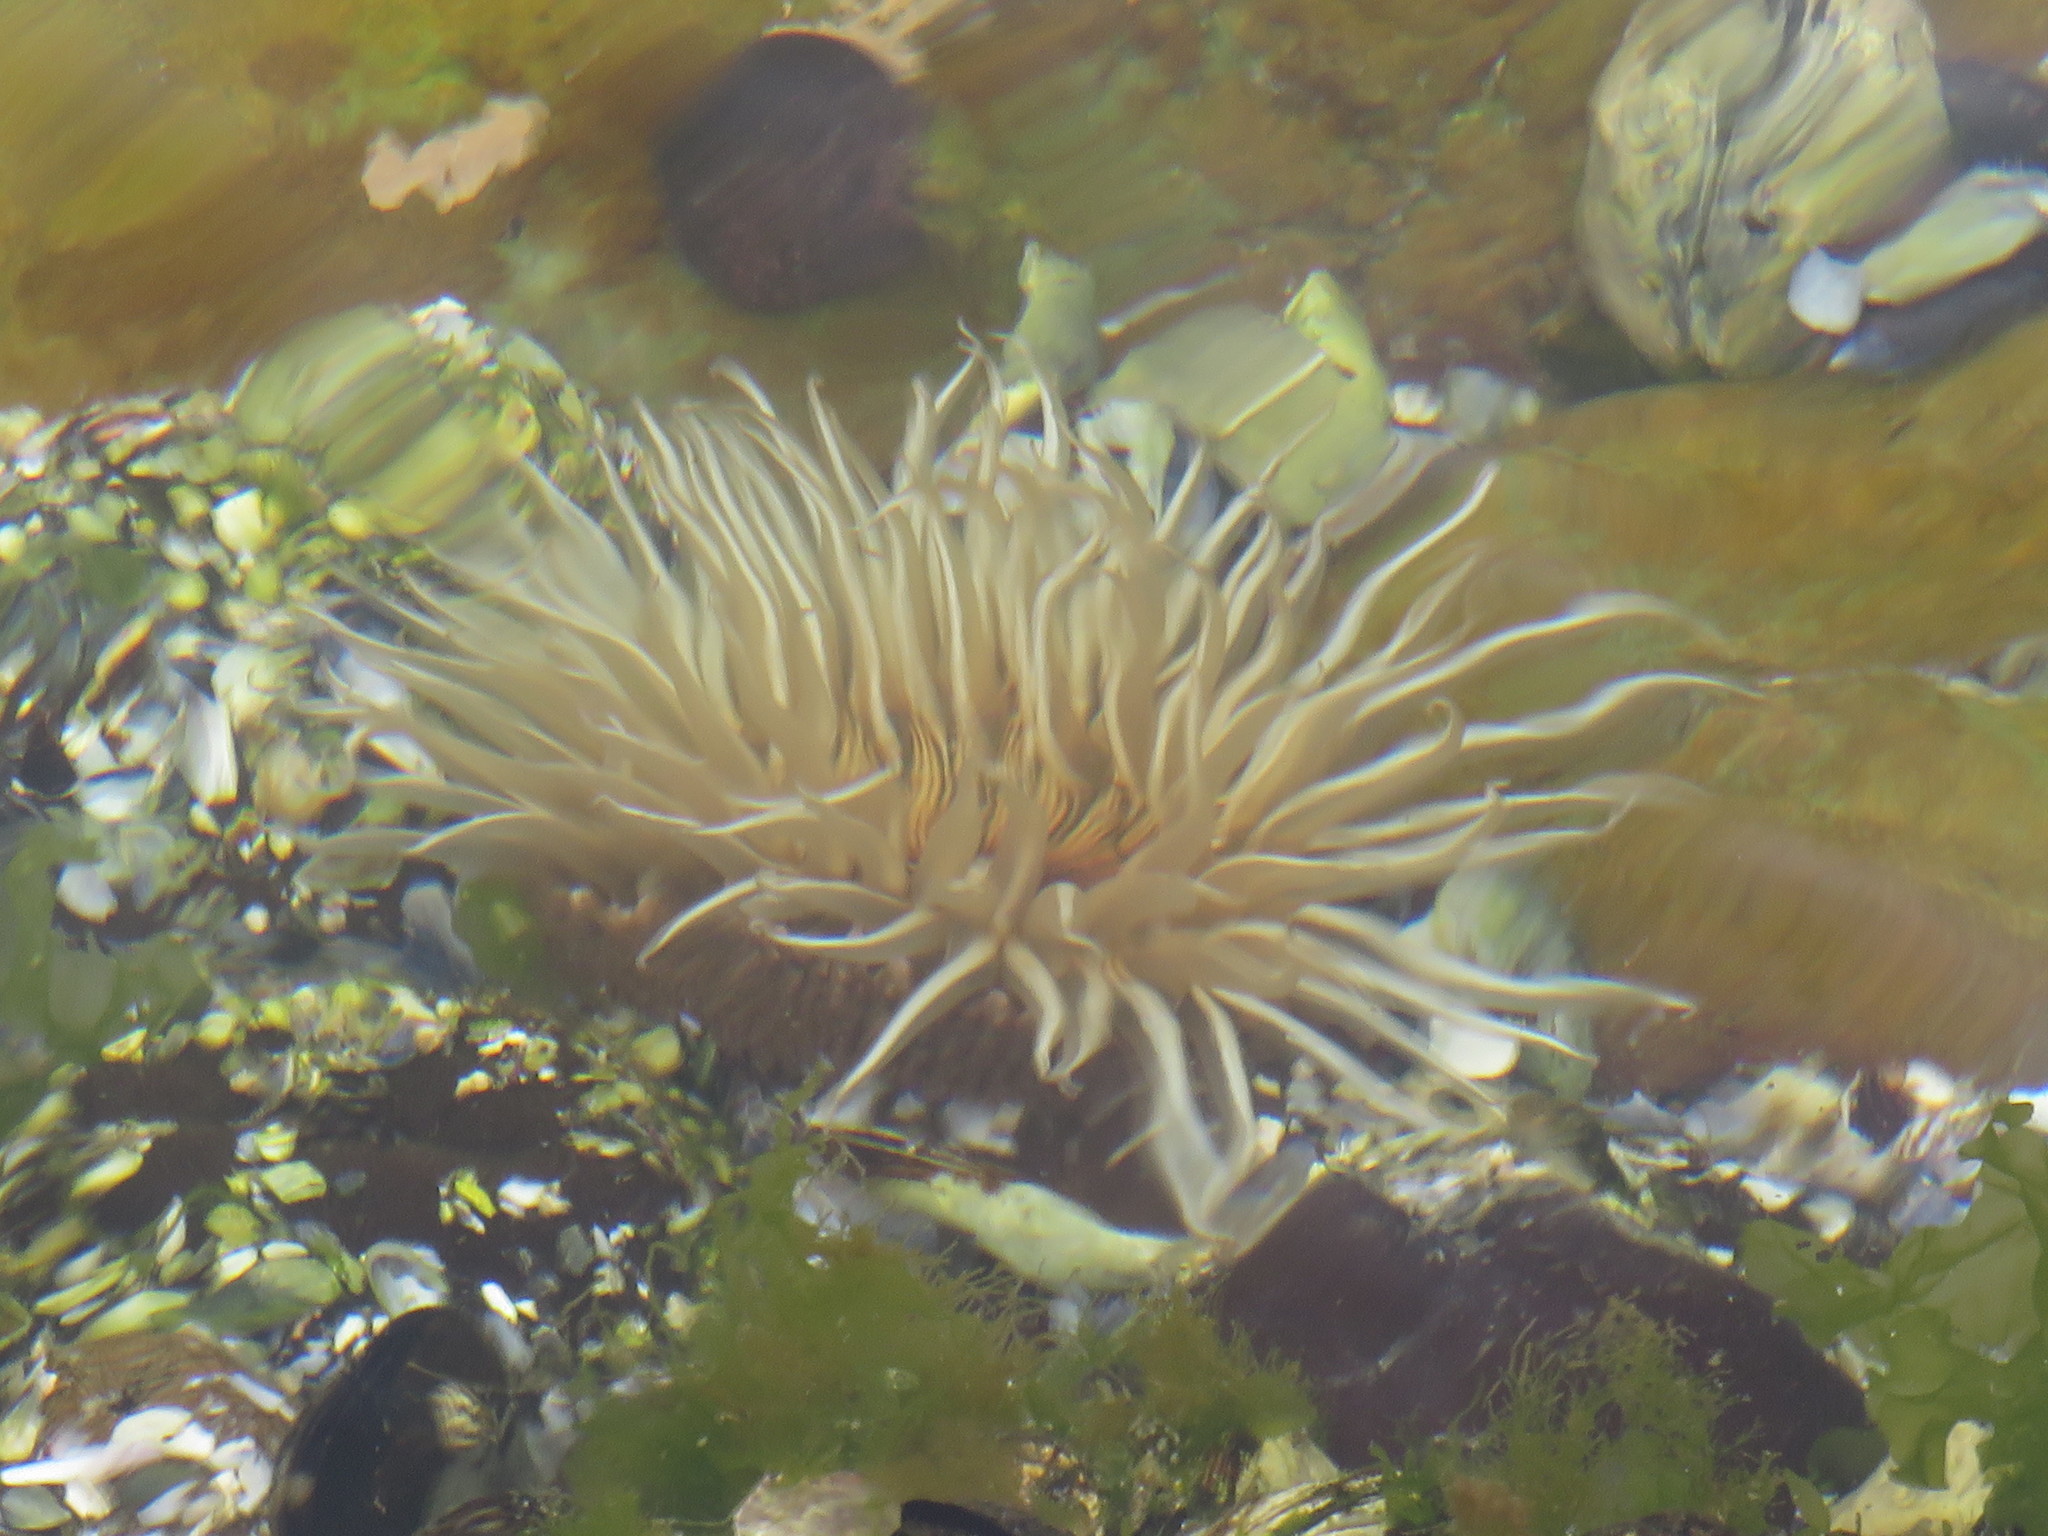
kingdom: Animalia
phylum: Cnidaria
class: Anthozoa
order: Actiniaria
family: Actiniidae
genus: Anthopleura
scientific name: Anthopleura michaelseni
